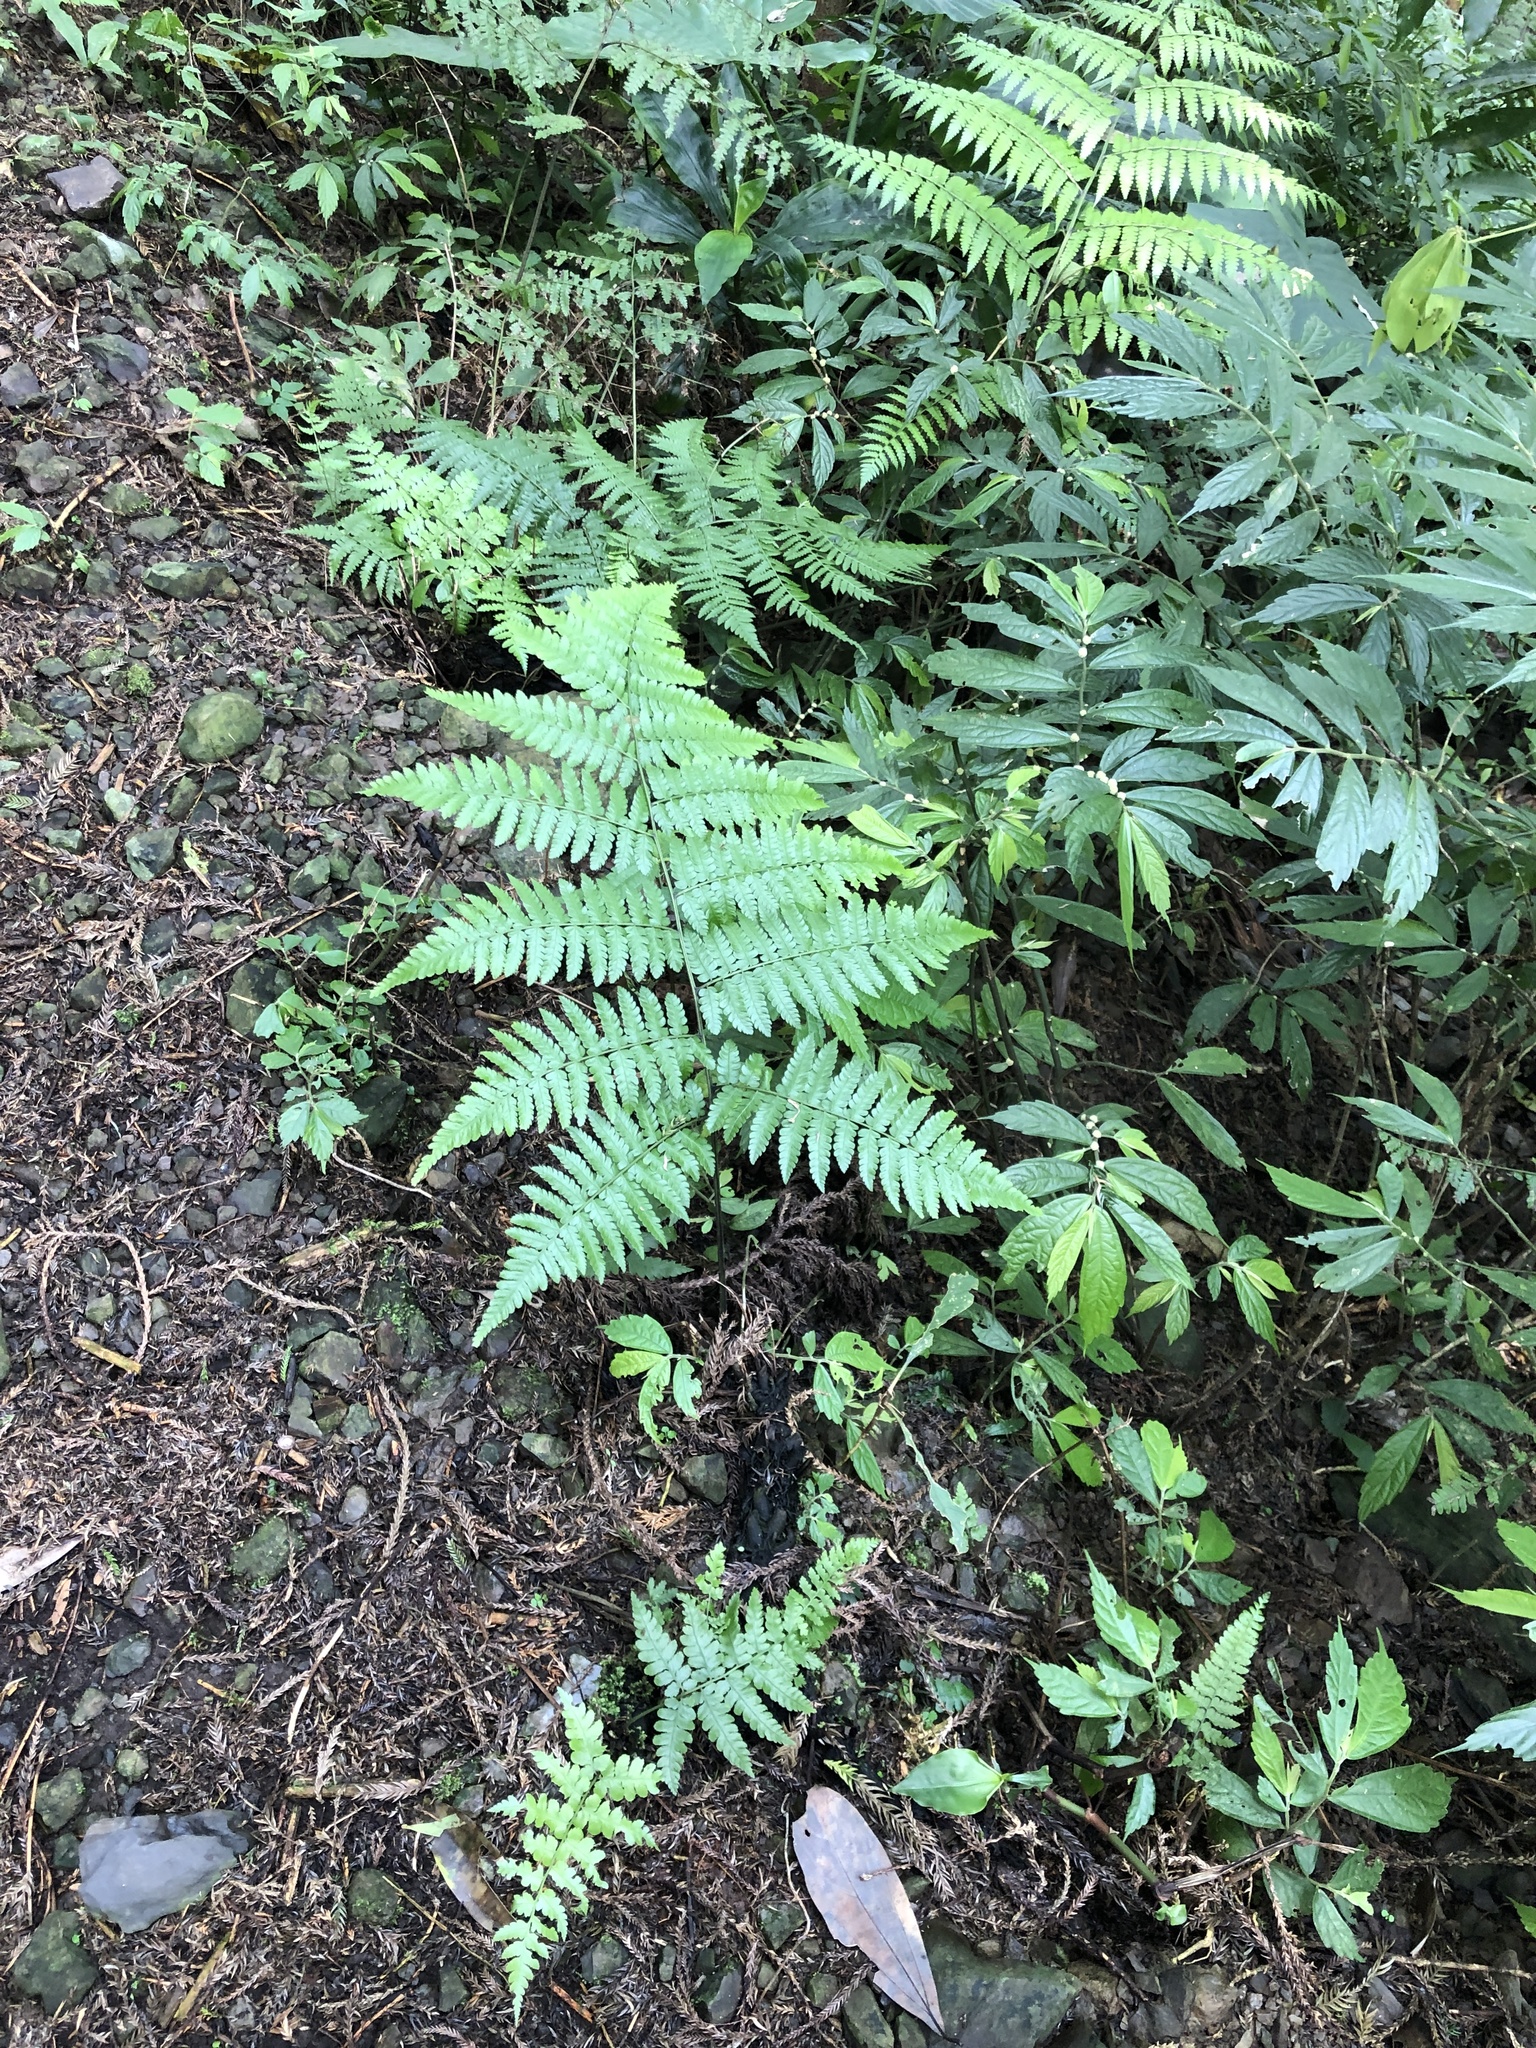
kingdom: Plantae
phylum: Tracheophyta
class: Polypodiopsida
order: Polypodiales
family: Athyriaceae
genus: Diplazium
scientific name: Diplazium virescens
